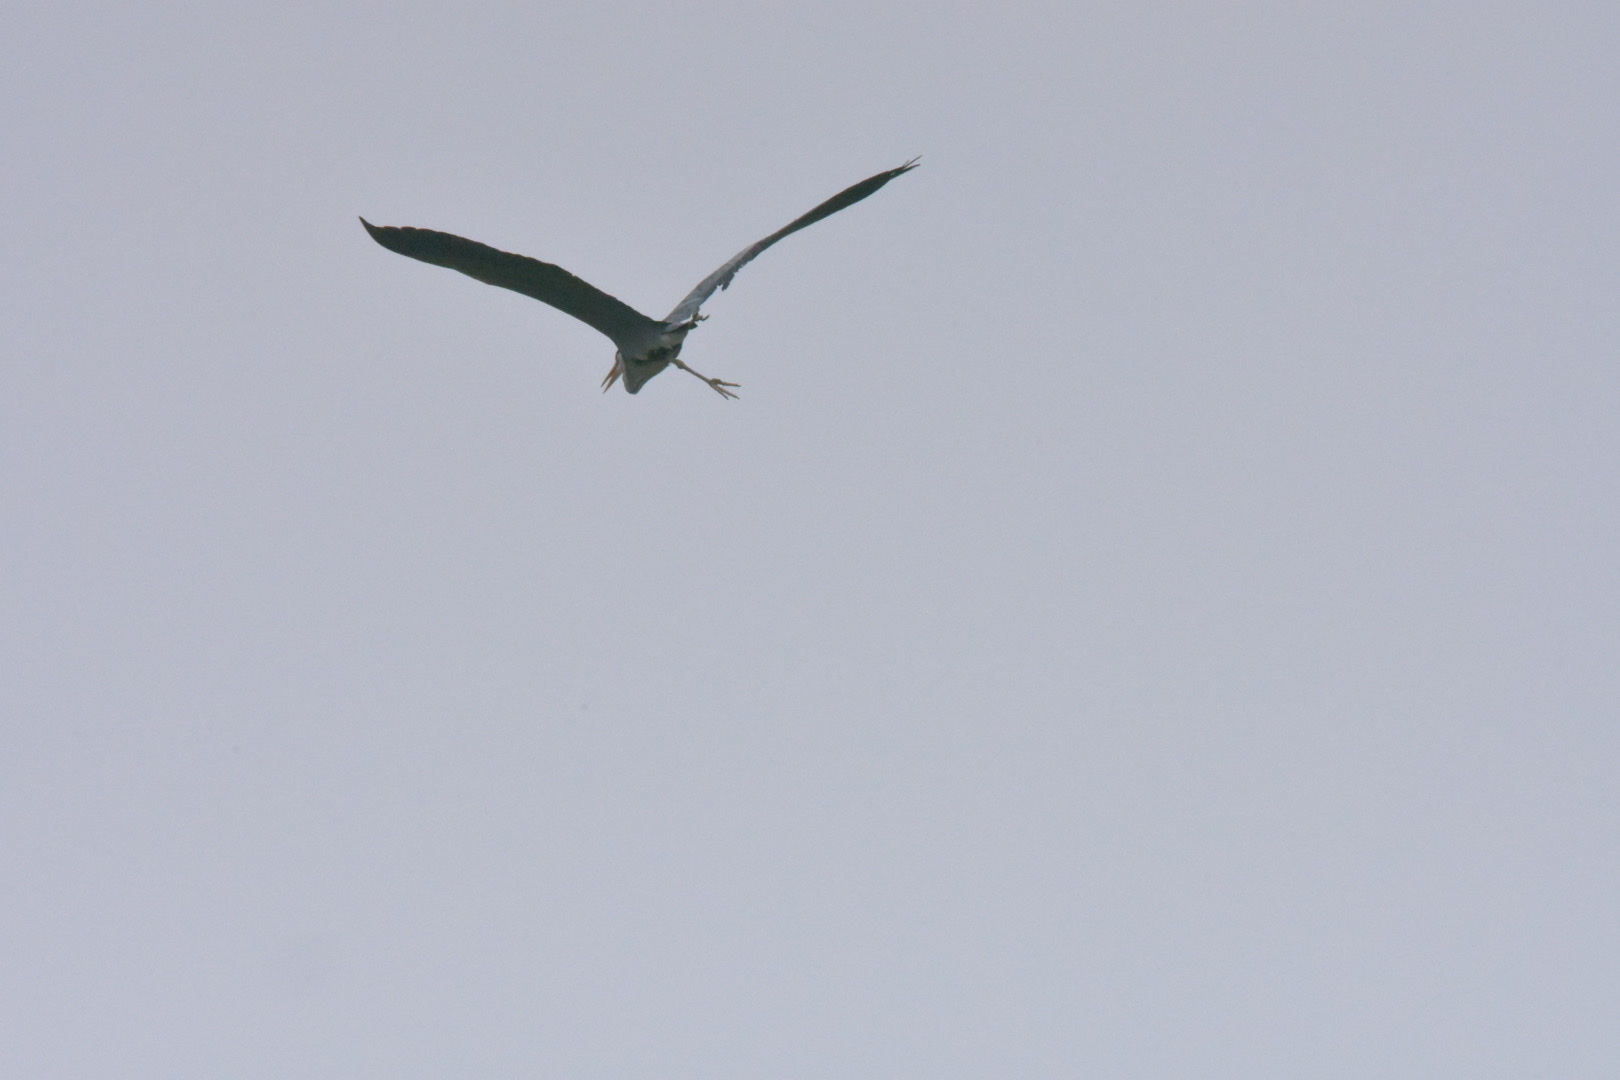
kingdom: Animalia
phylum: Chordata
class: Aves
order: Pelecaniformes
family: Ardeidae
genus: Ardea
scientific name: Ardea cinerea
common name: Grey heron
